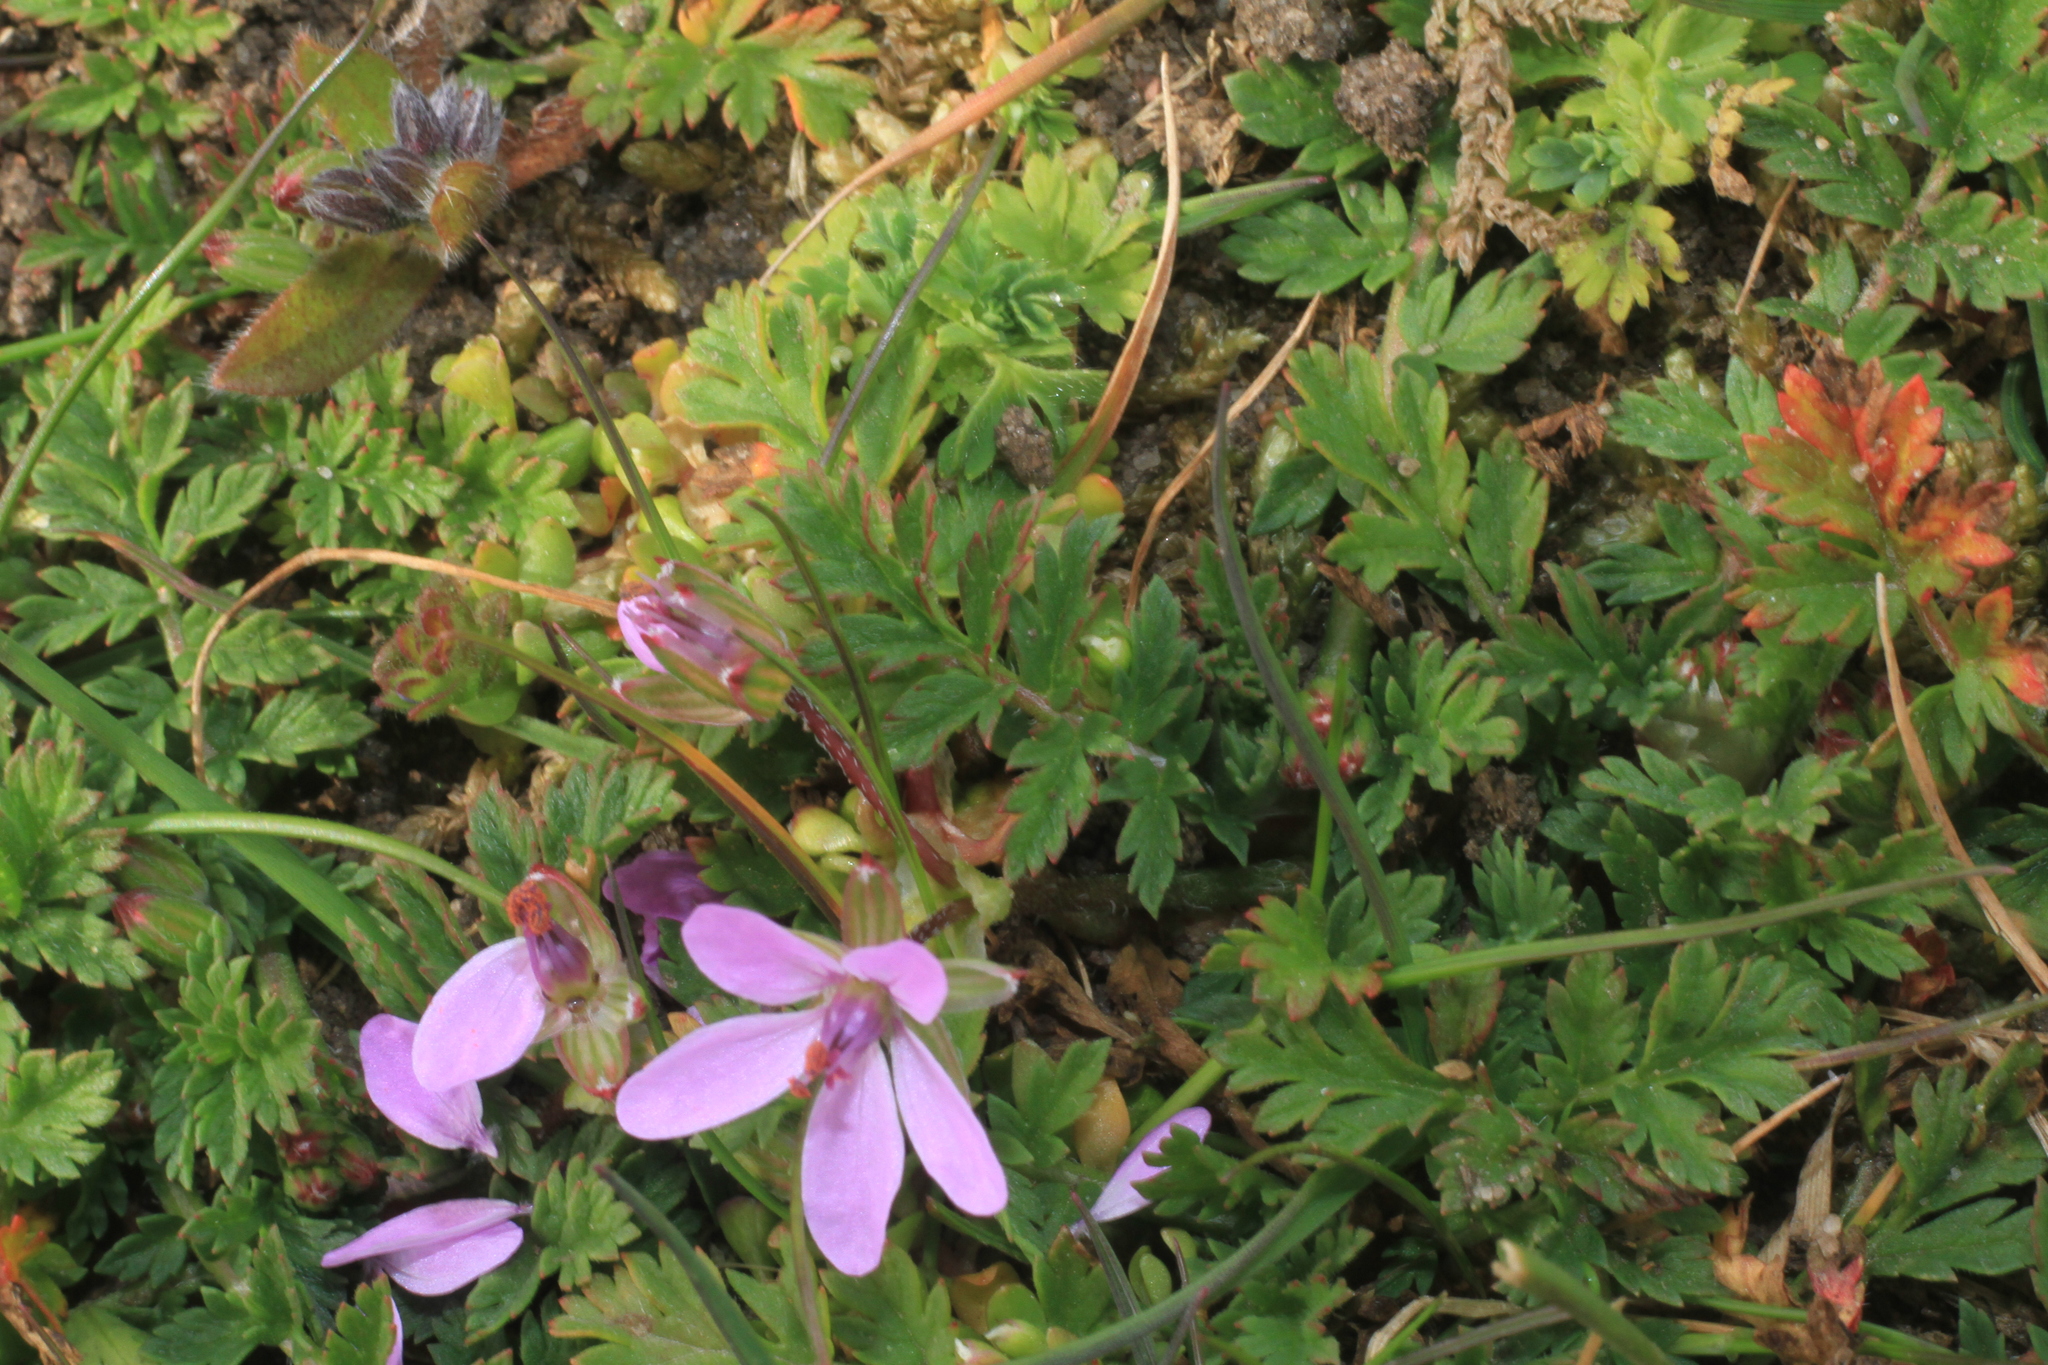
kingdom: Plantae
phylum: Tracheophyta
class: Magnoliopsida
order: Geraniales
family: Geraniaceae
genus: Erodium
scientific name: Erodium cicutarium
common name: Common stork's-bill
